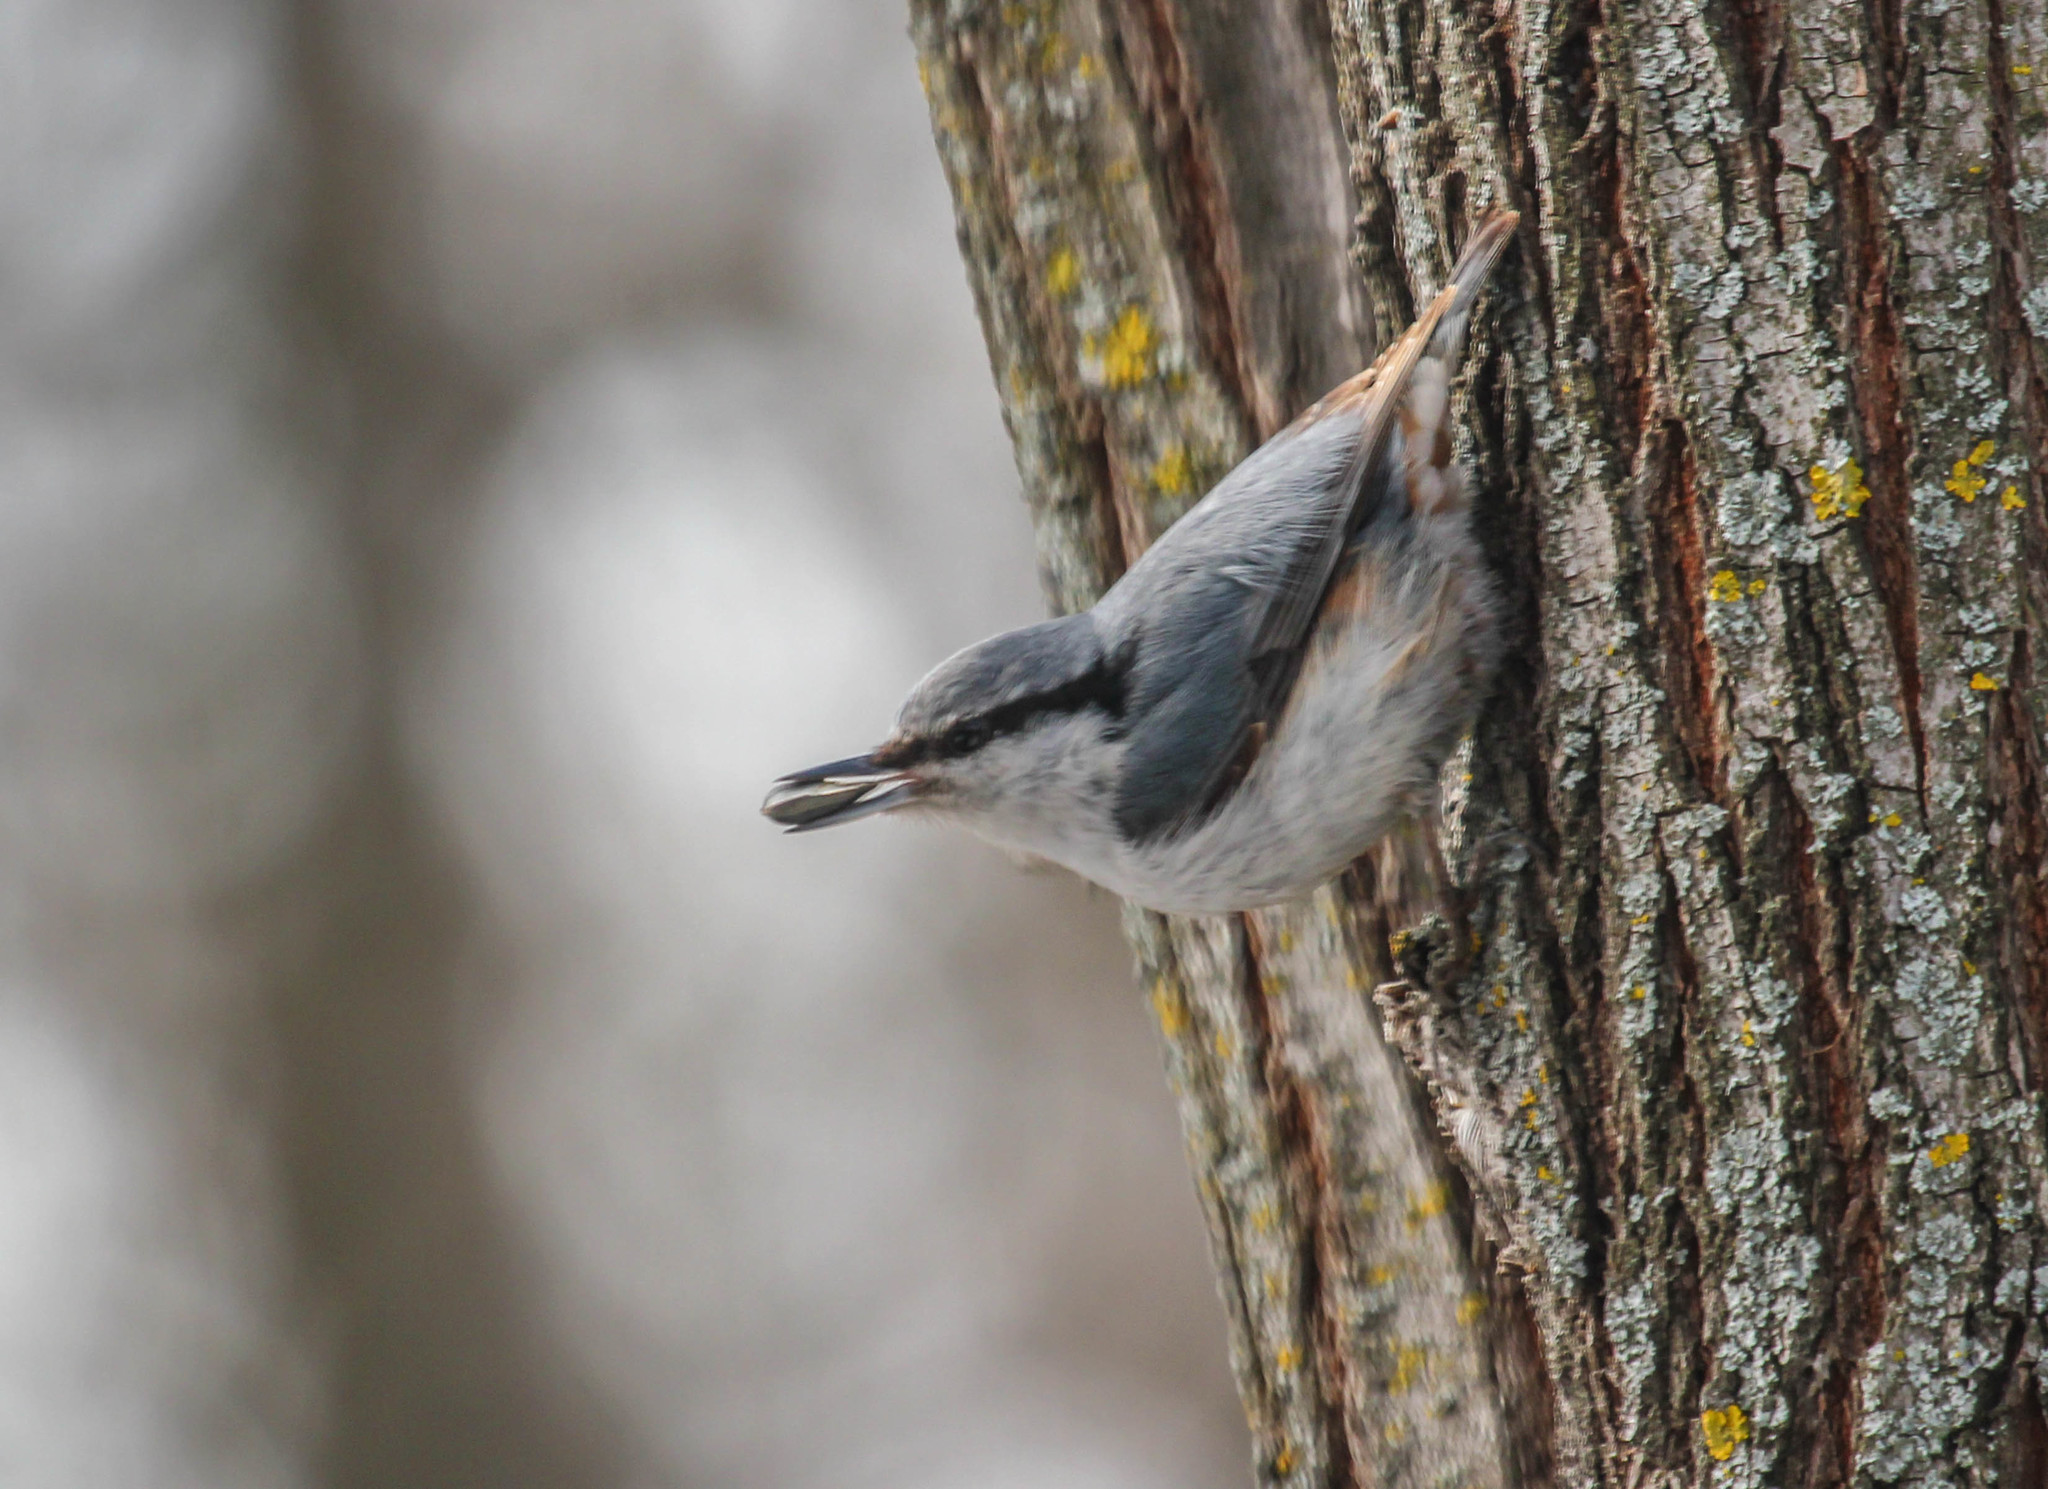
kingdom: Animalia
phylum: Chordata
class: Aves
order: Passeriformes
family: Sittidae
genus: Sitta
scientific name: Sitta europaea
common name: Eurasian nuthatch
